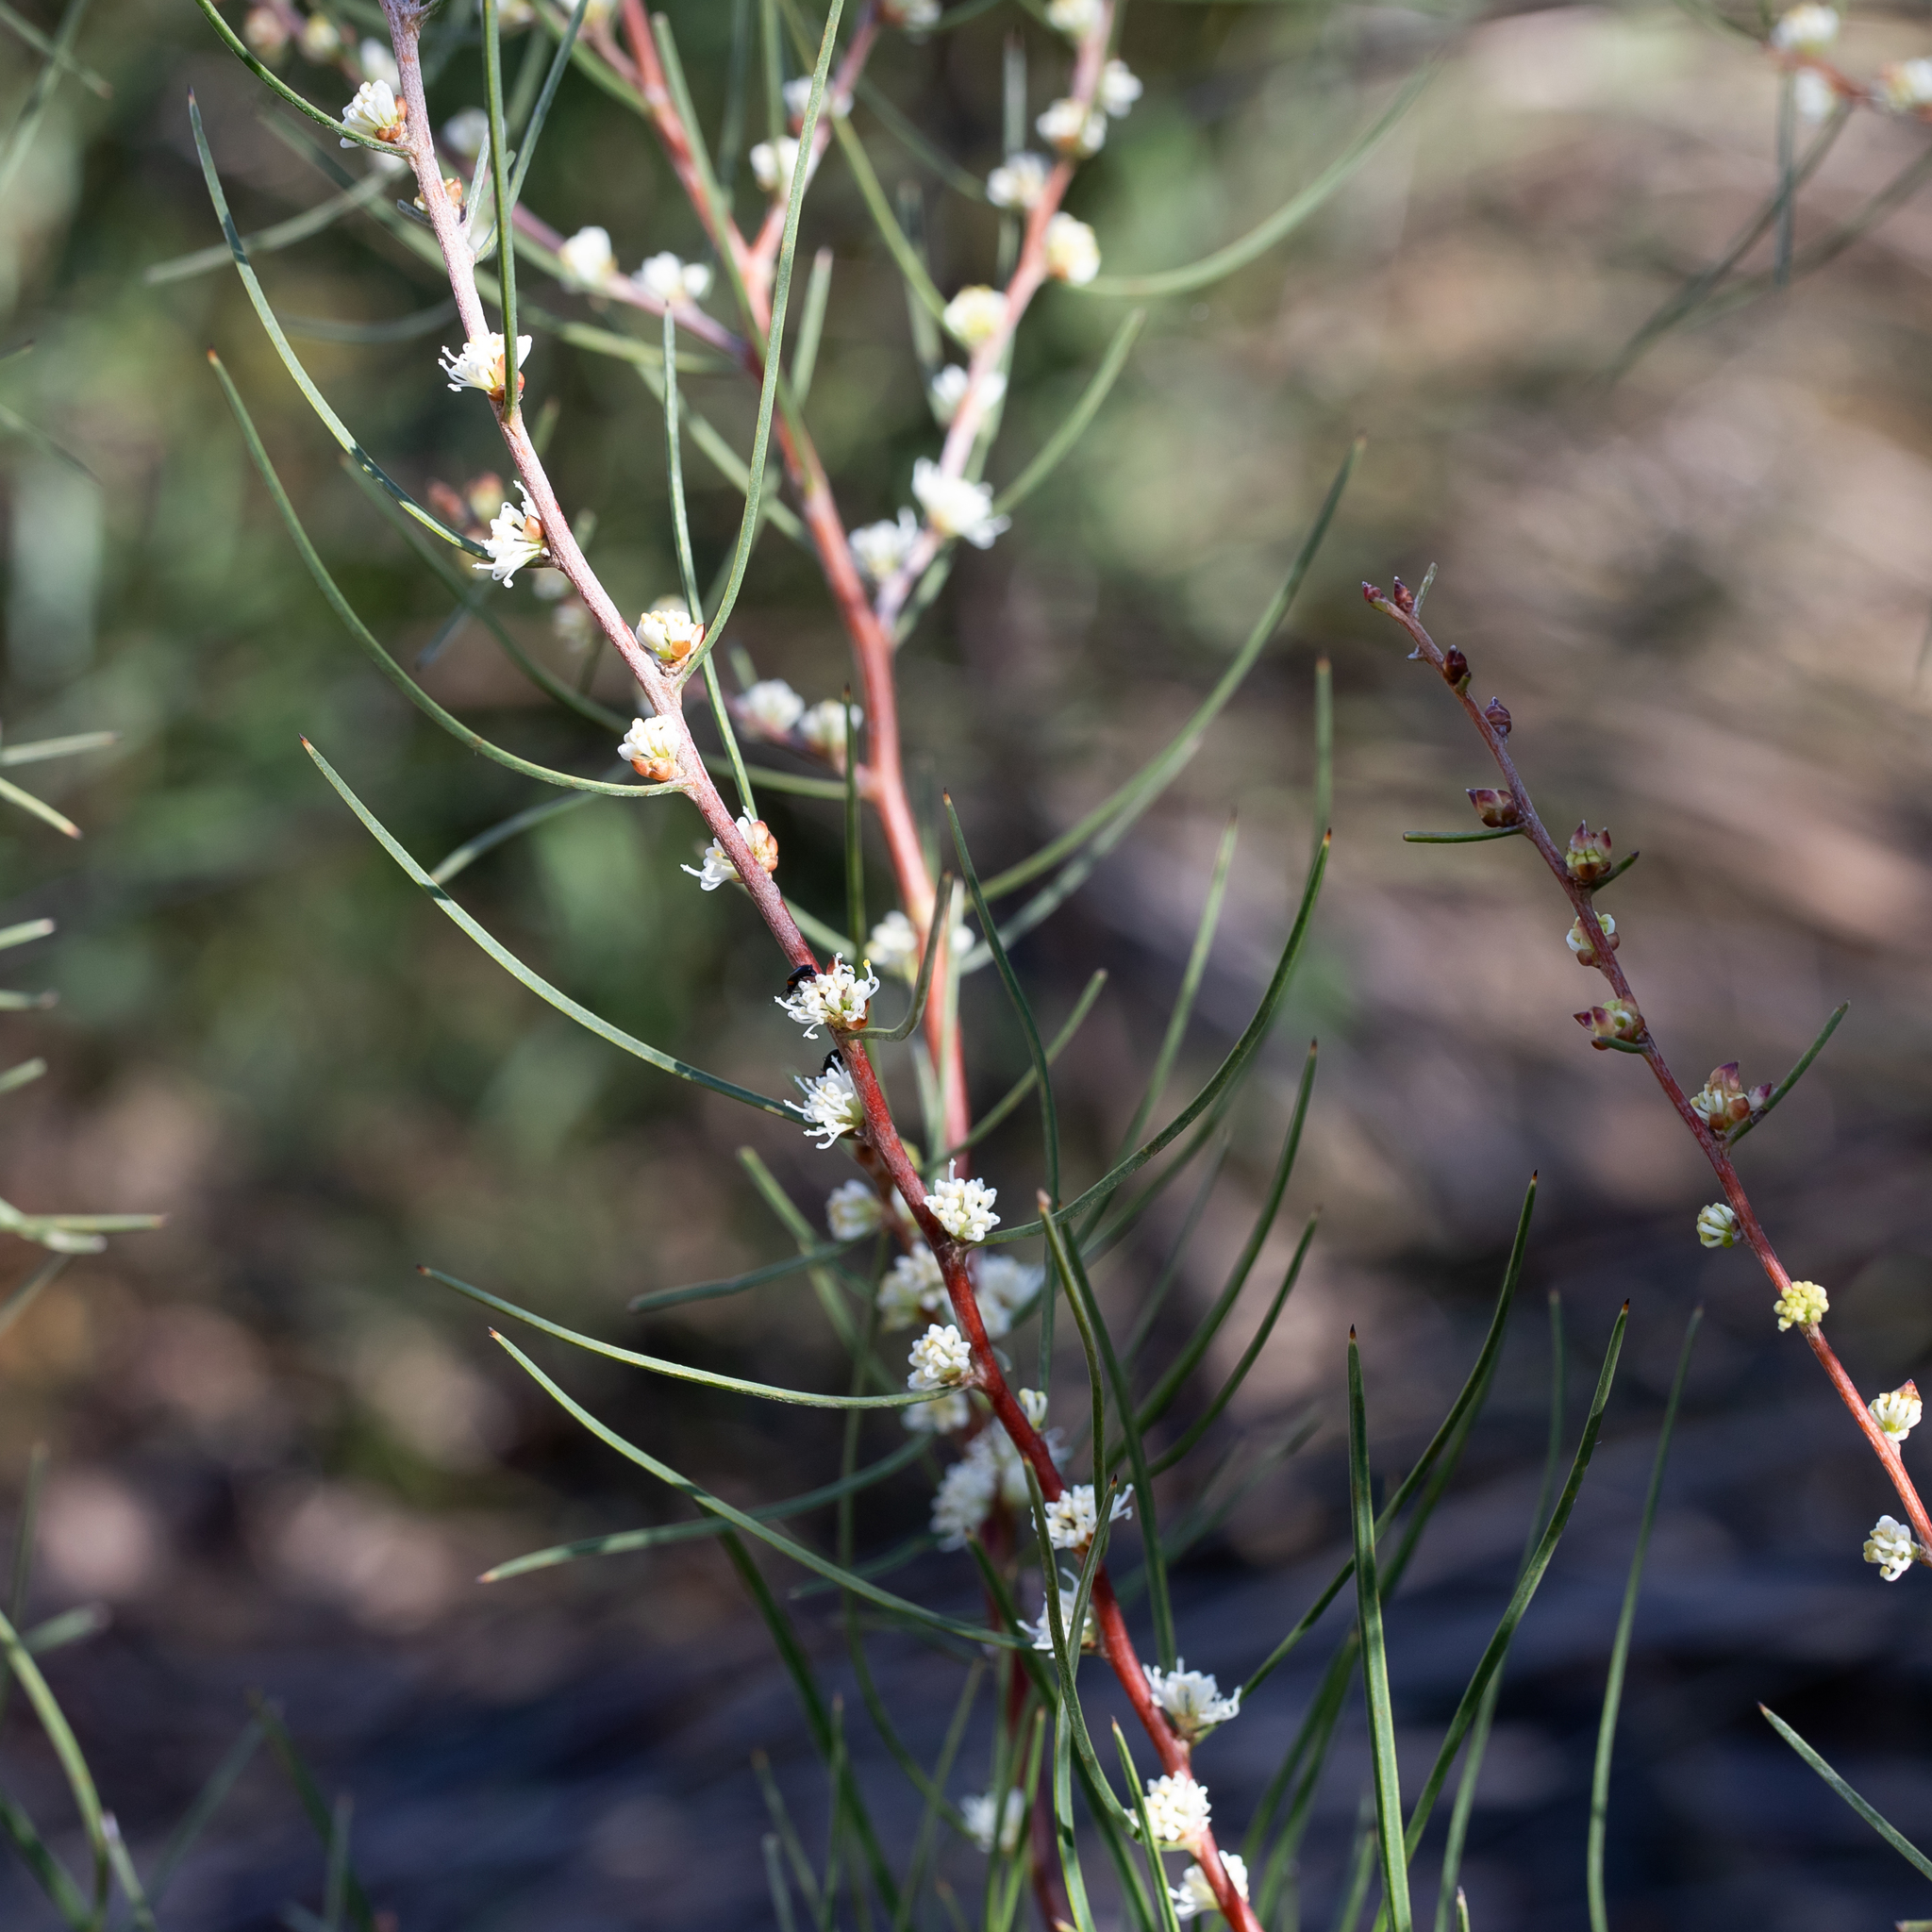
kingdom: Plantae
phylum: Tracheophyta
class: Magnoliopsida
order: Proteales
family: Proteaceae
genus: Hakea
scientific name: Hakea carinata
